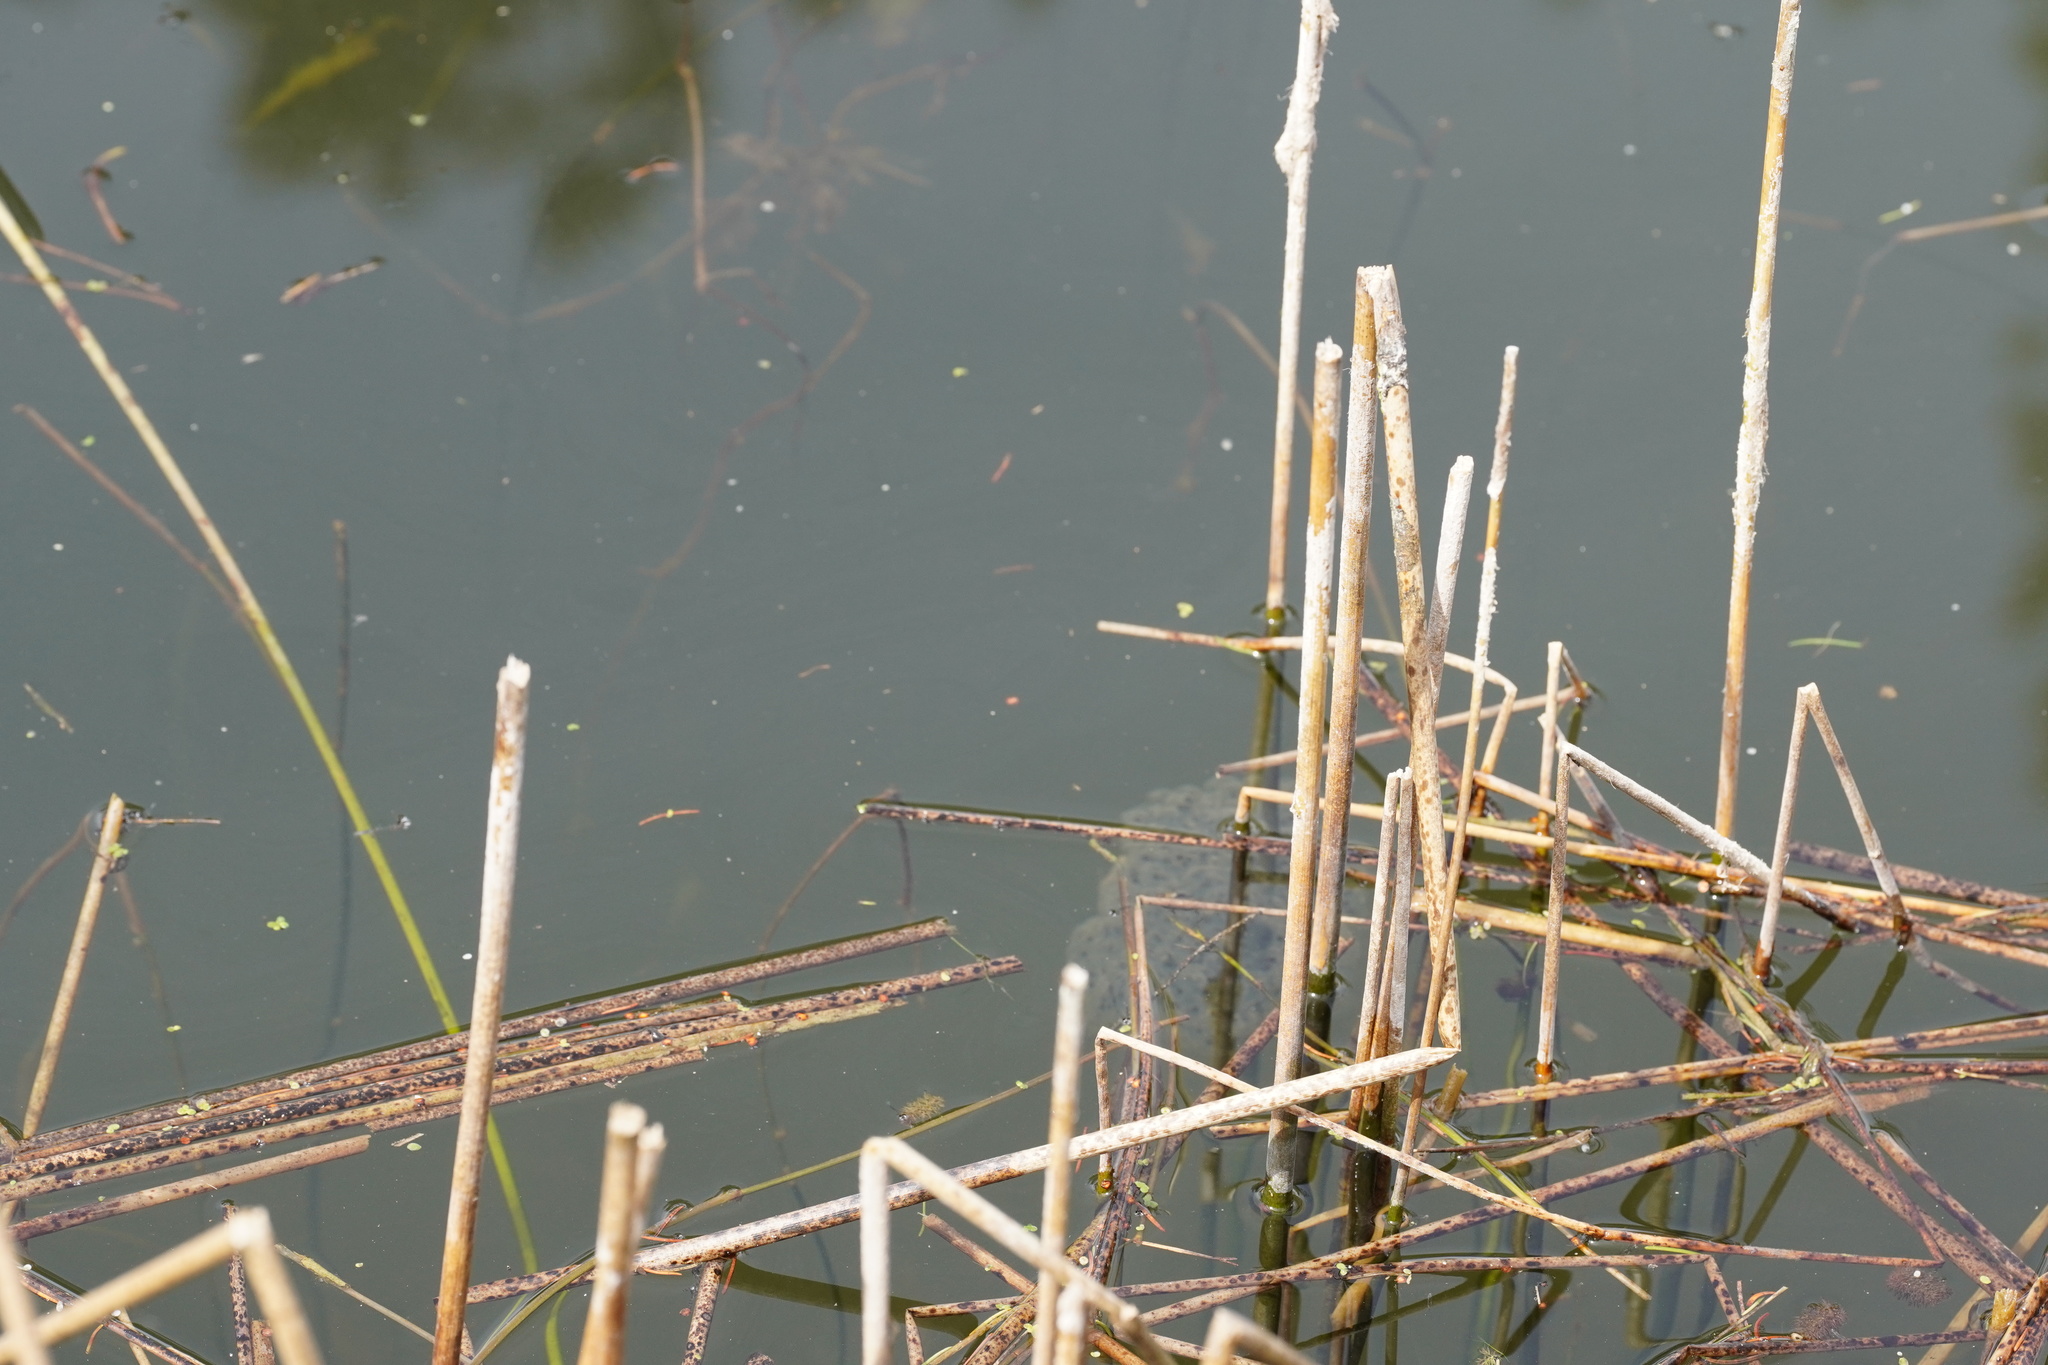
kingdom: Animalia
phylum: Chordata
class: Amphibia
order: Anura
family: Ranidae
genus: Rana
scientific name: Rana dalmatina
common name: Agile frog
